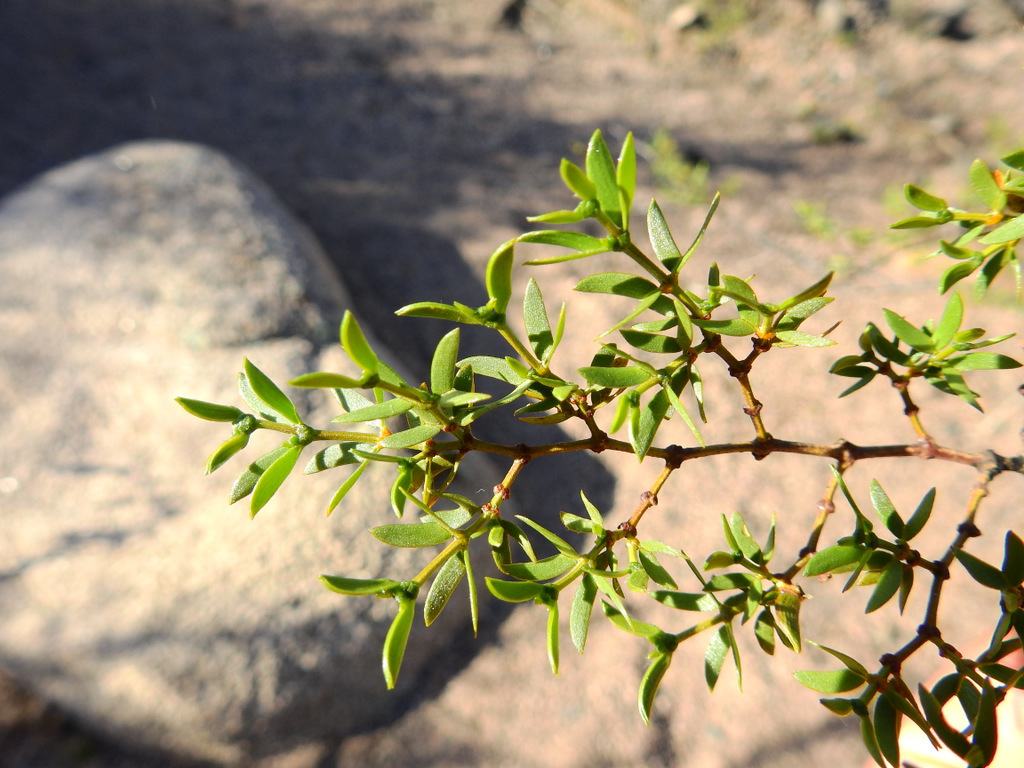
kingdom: Plantae
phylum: Tracheophyta
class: Magnoliopsida
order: Zygophyllales
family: Zygophyllaceae
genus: Larrea
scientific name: Larrea divaricata
